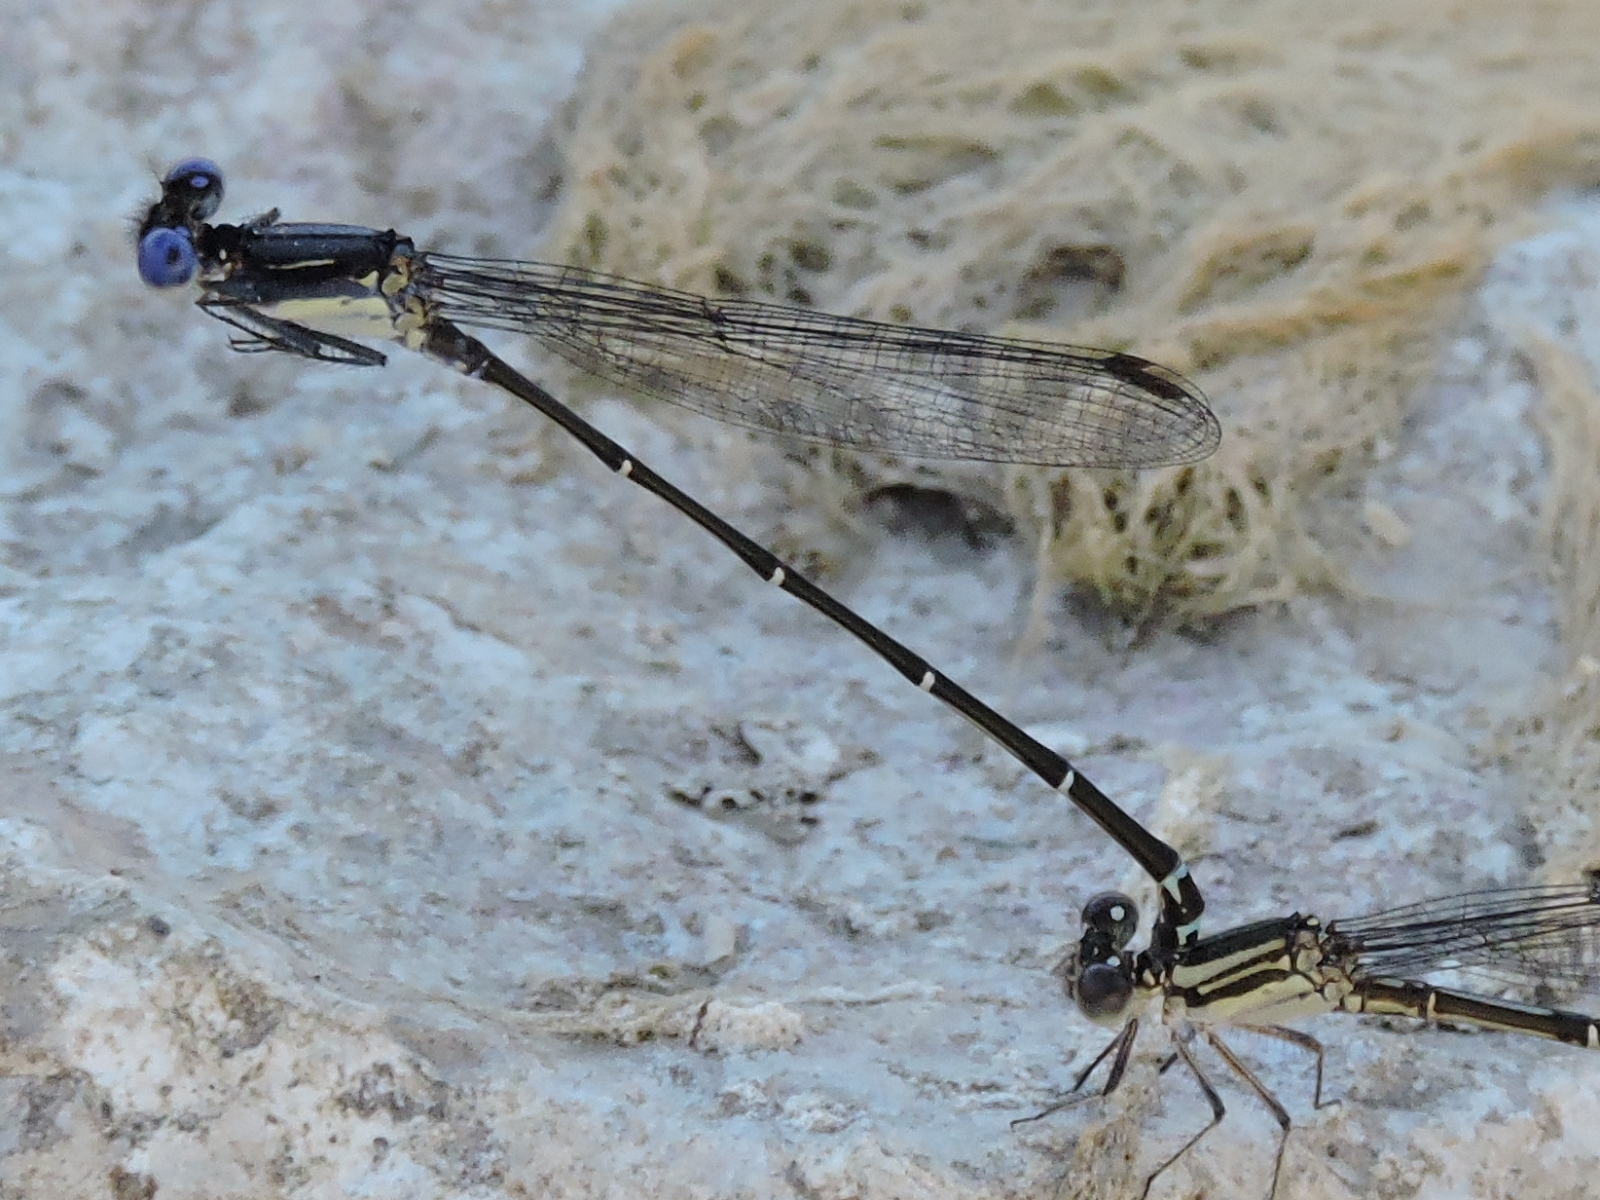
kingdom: Animalia
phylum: Arthropoda
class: Insecta
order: Odonata
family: Coenagrionidae
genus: Argia
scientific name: Argia translata
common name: Dusky dancer
